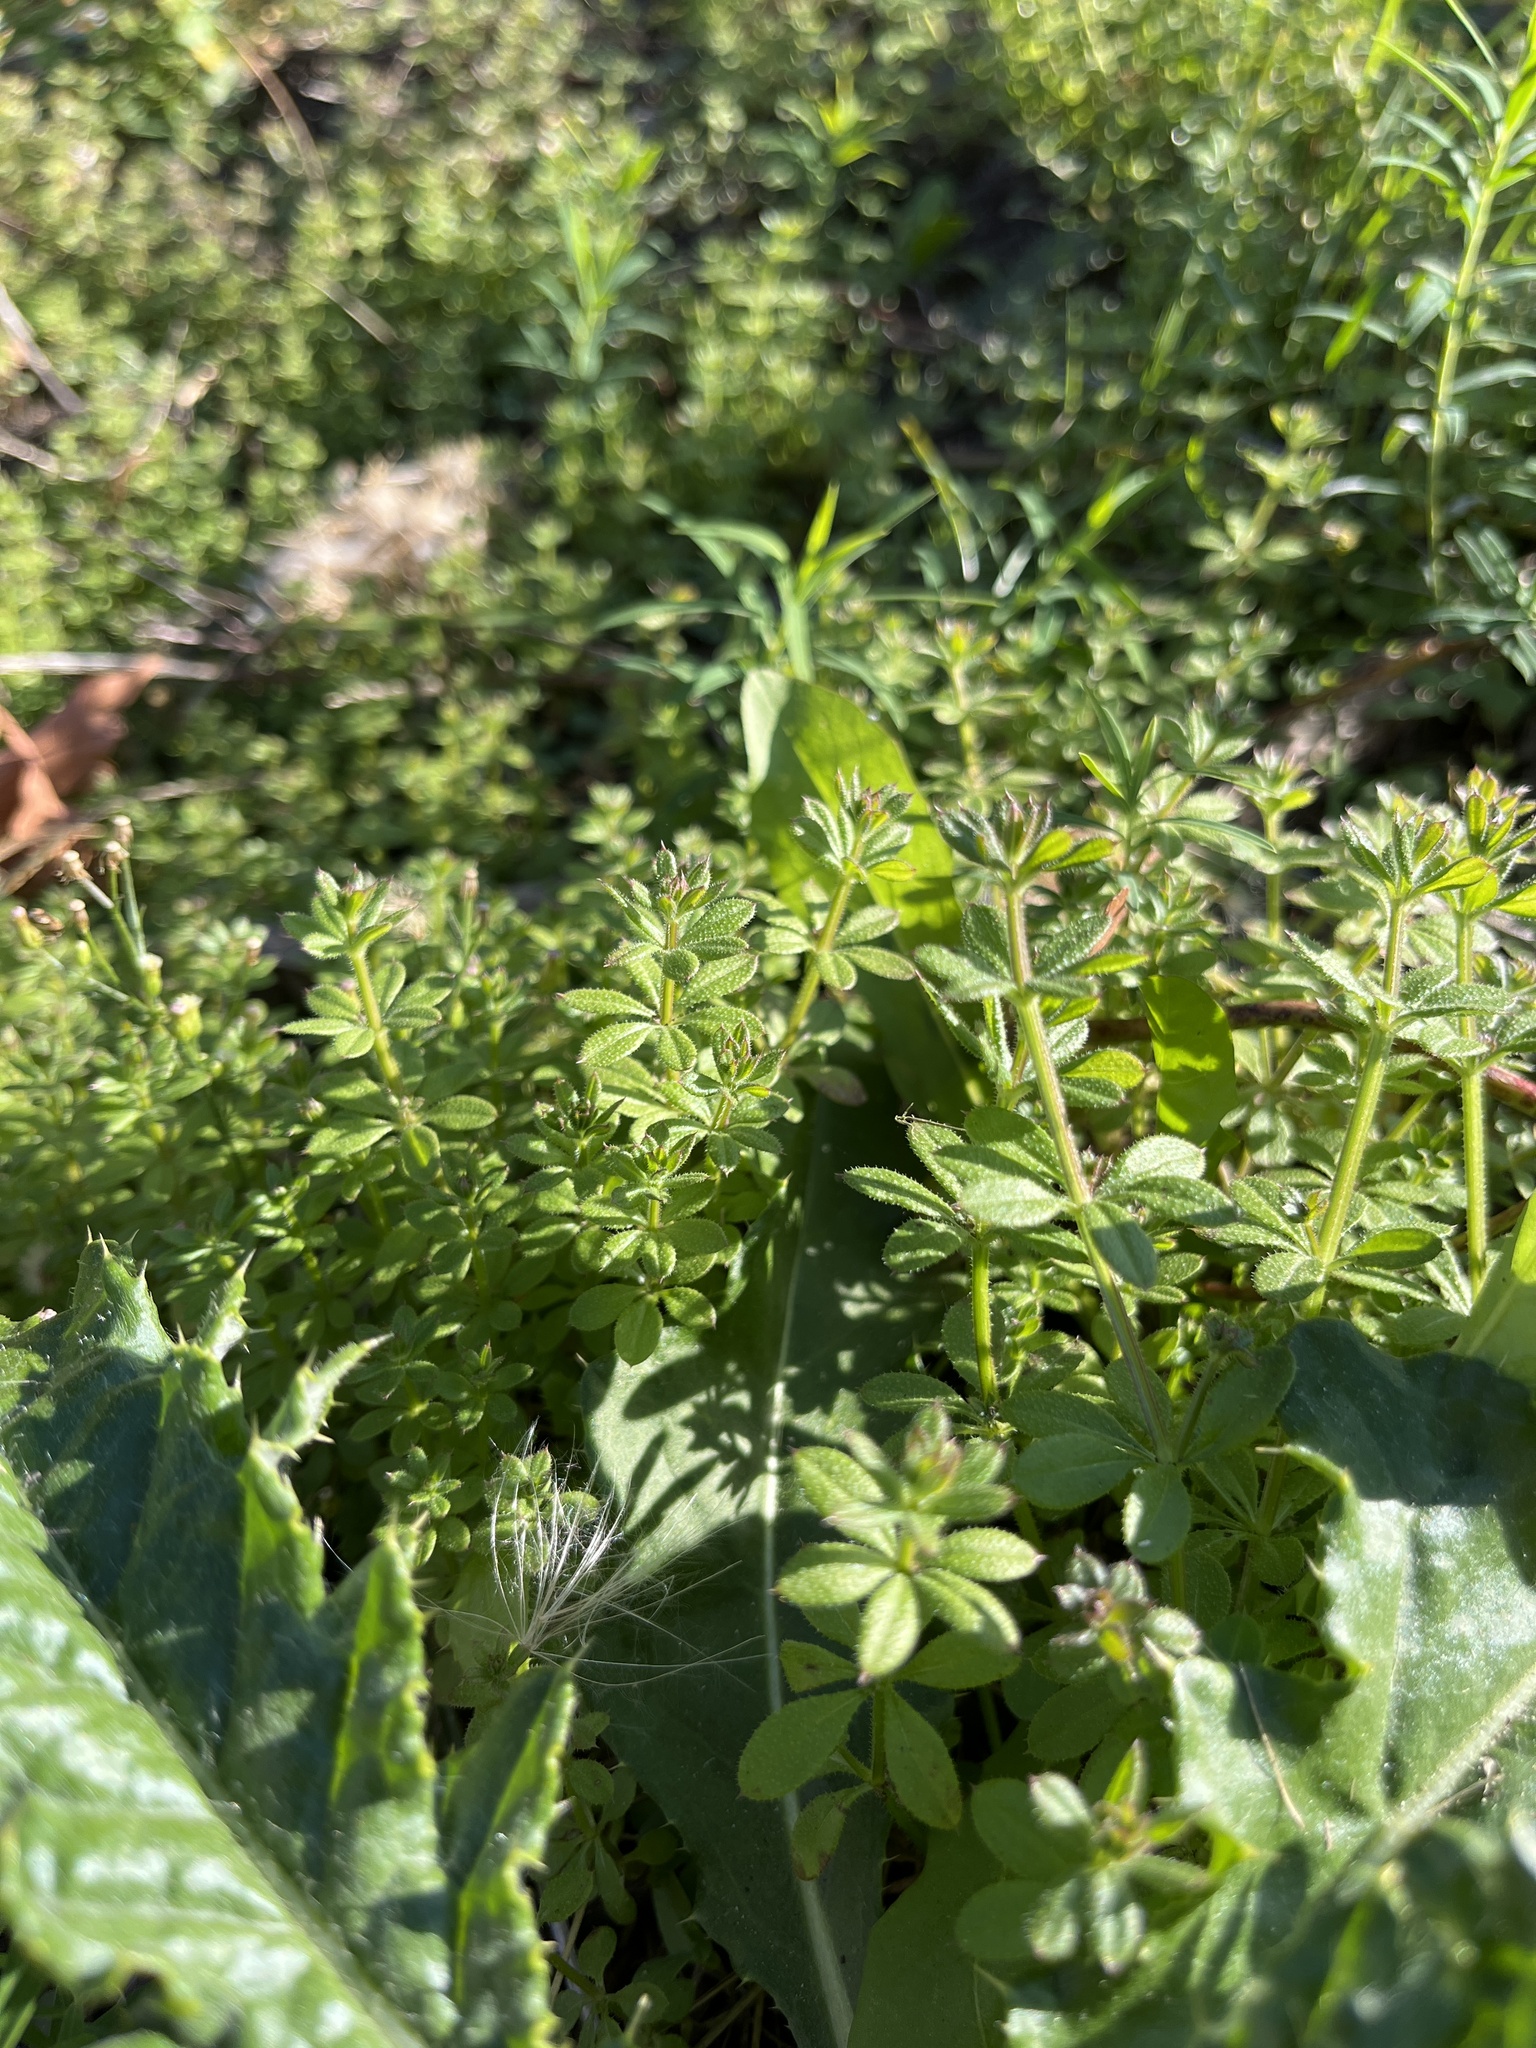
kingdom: Plantae
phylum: Tracheophyta
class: Magnoliopsida
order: Gentianales
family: Rubiaceae
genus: Galium
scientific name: Galium aparine
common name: Cleavers
